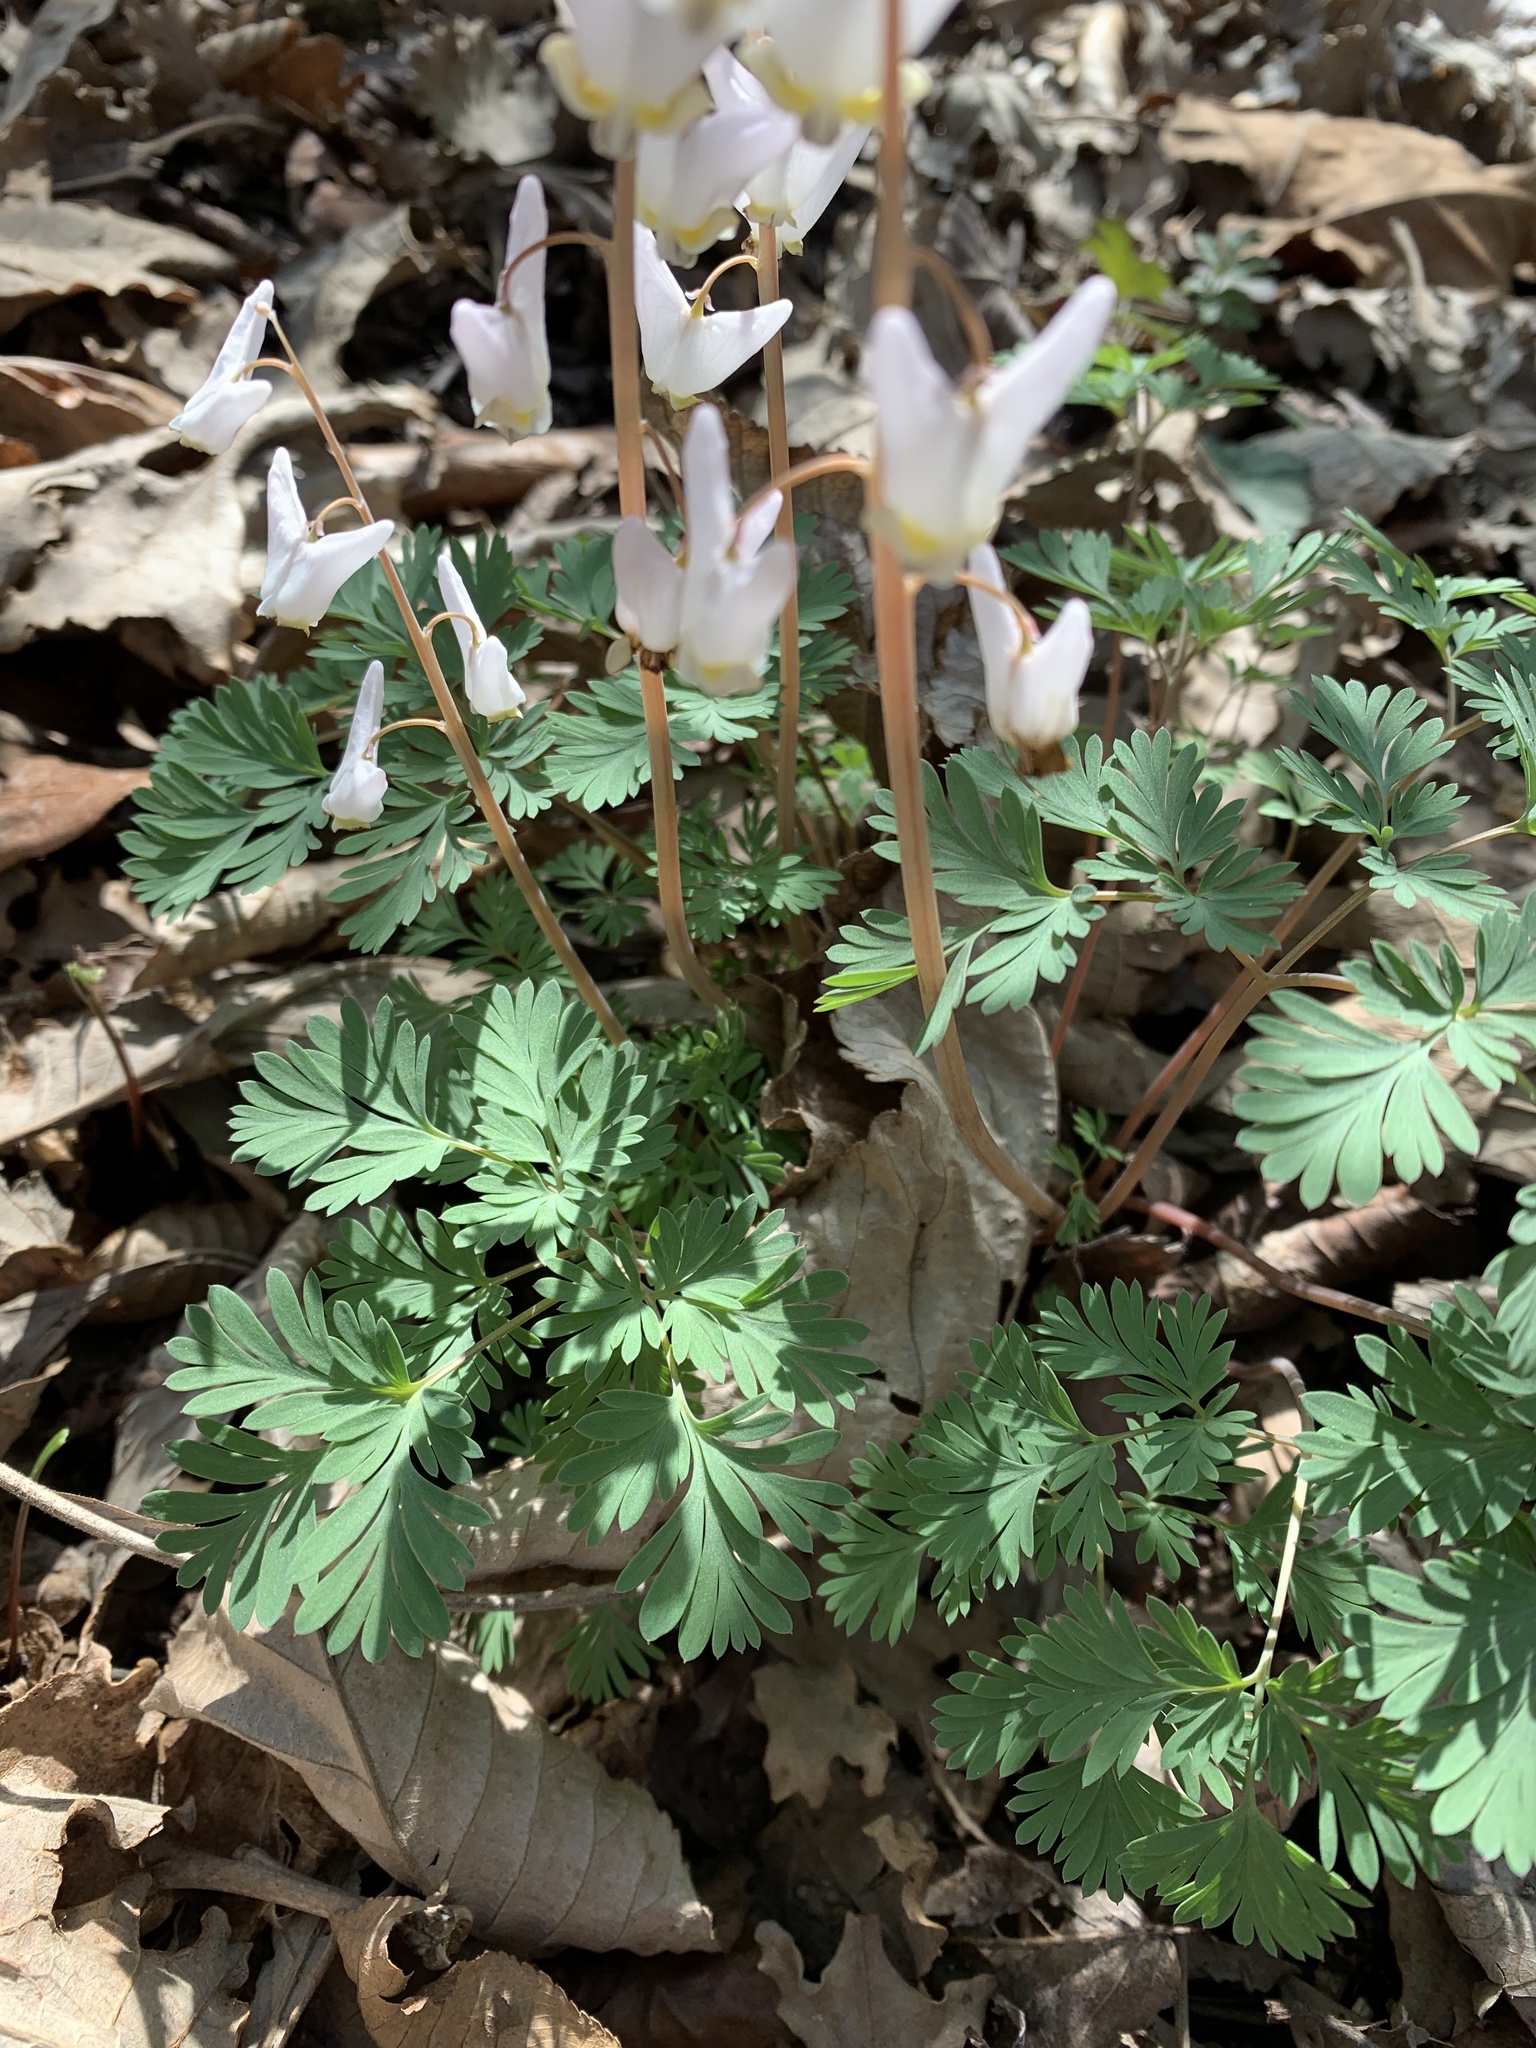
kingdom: Plantae
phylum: Tracheophyta
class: Magnoliopsida
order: Ranunculales
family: Papaveraceae
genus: Dicentra
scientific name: Dicentra cucullaria
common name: Dutchman's breeches
